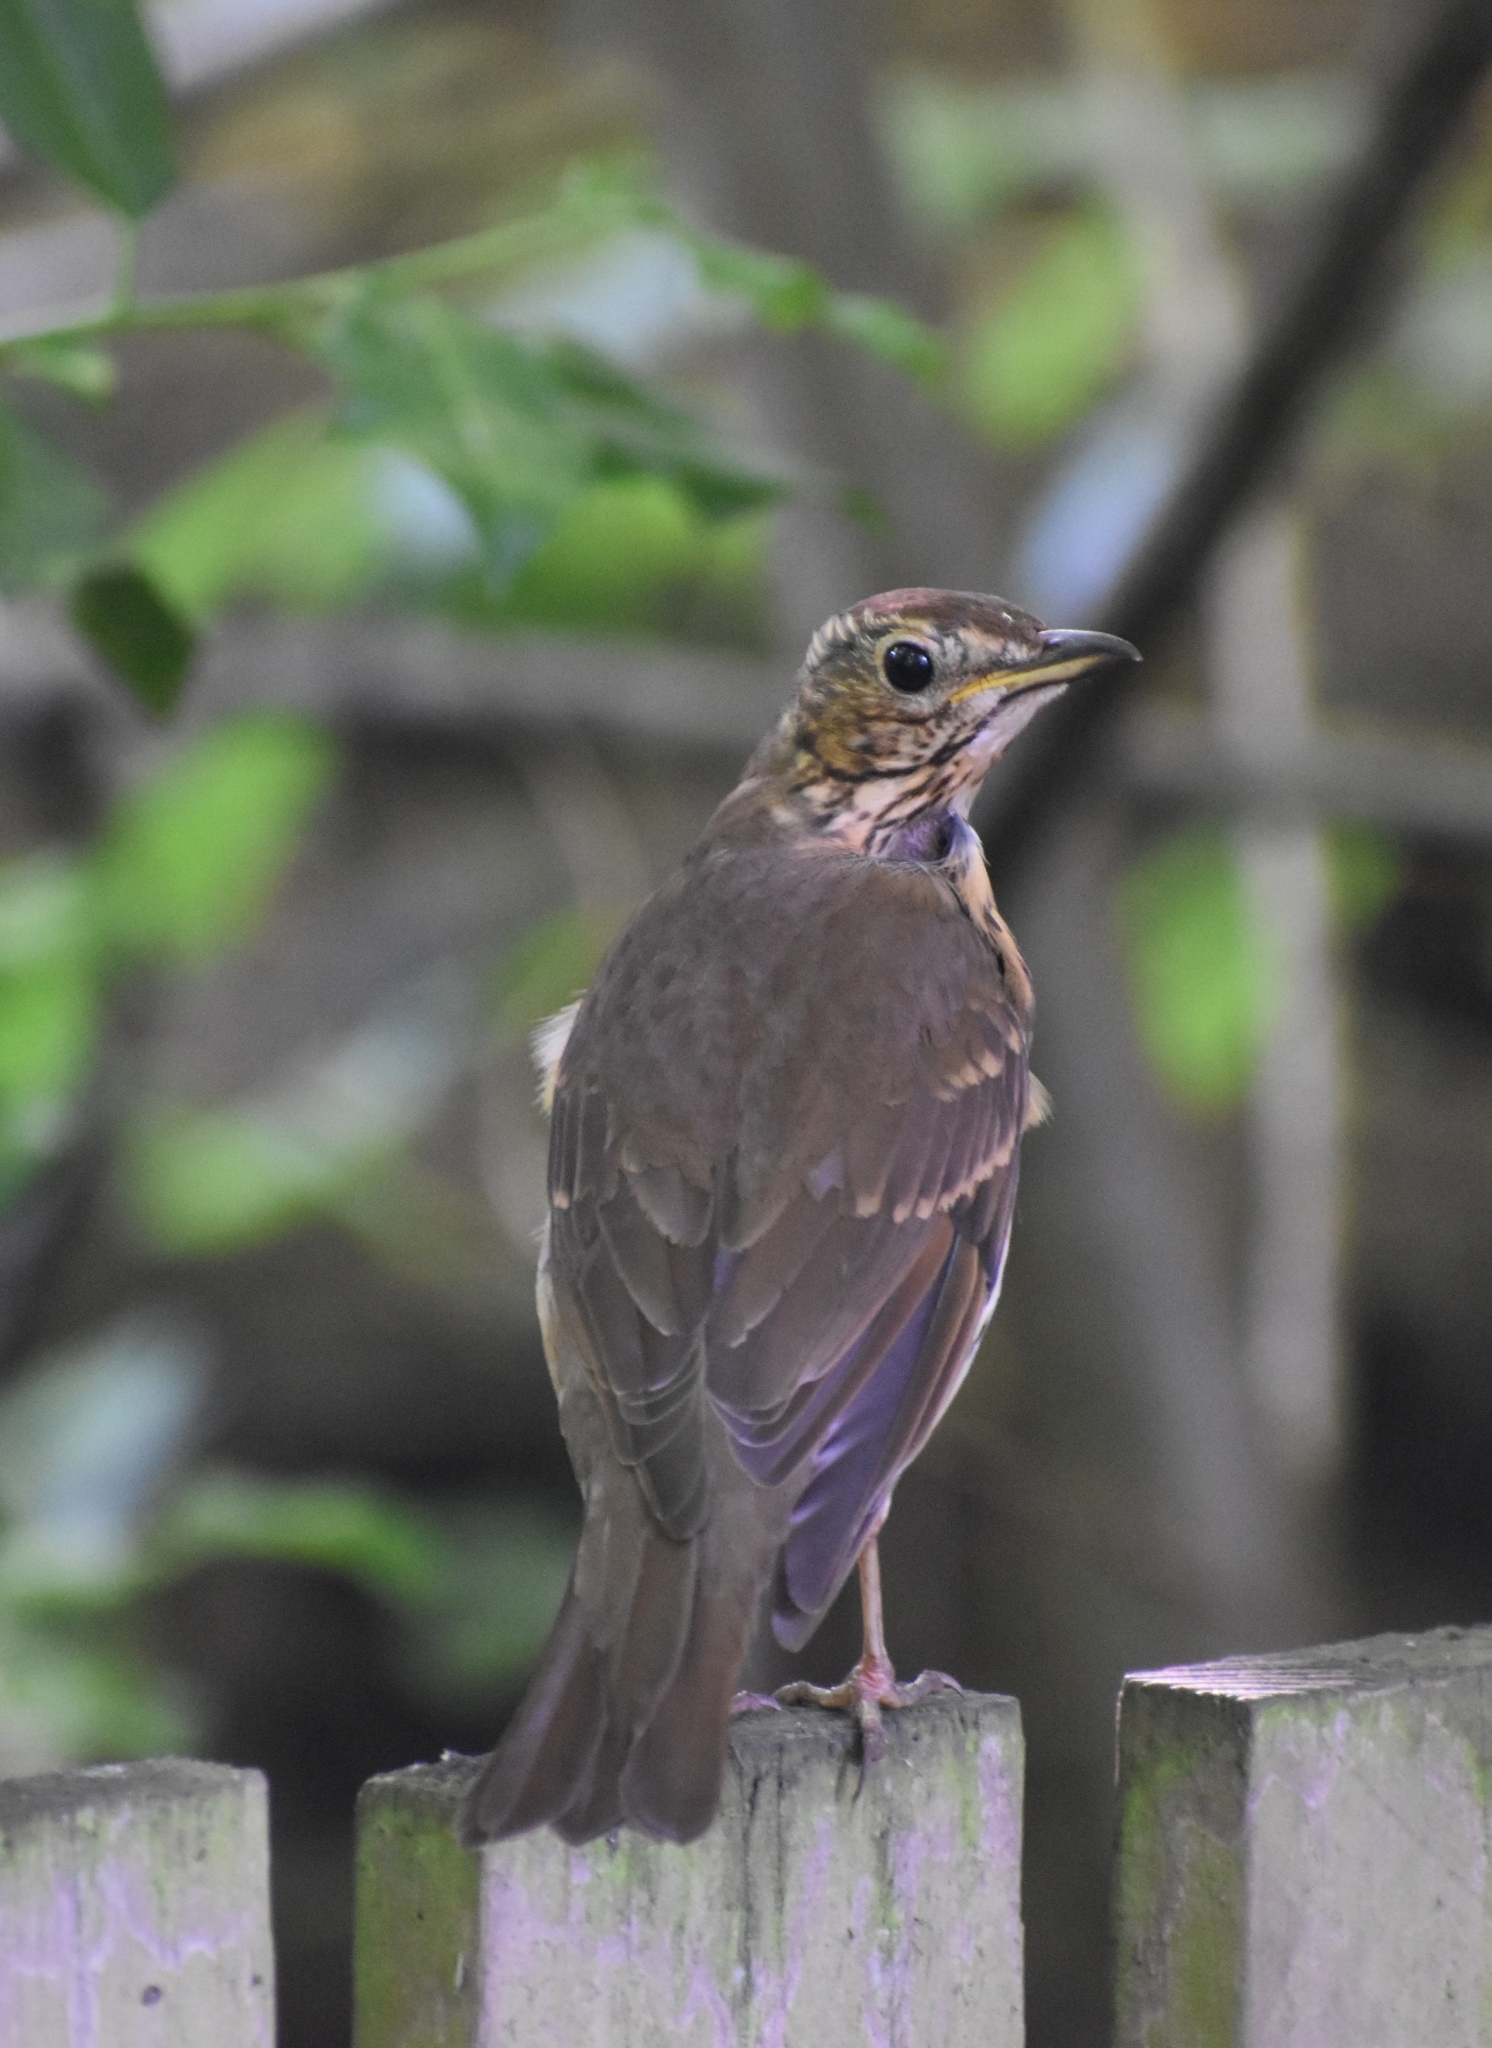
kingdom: Animalia
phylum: Chordata
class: Aves
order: Passeriformes
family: Turdidae
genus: Turdus
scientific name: Turdus philomelos
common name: Song thrush
